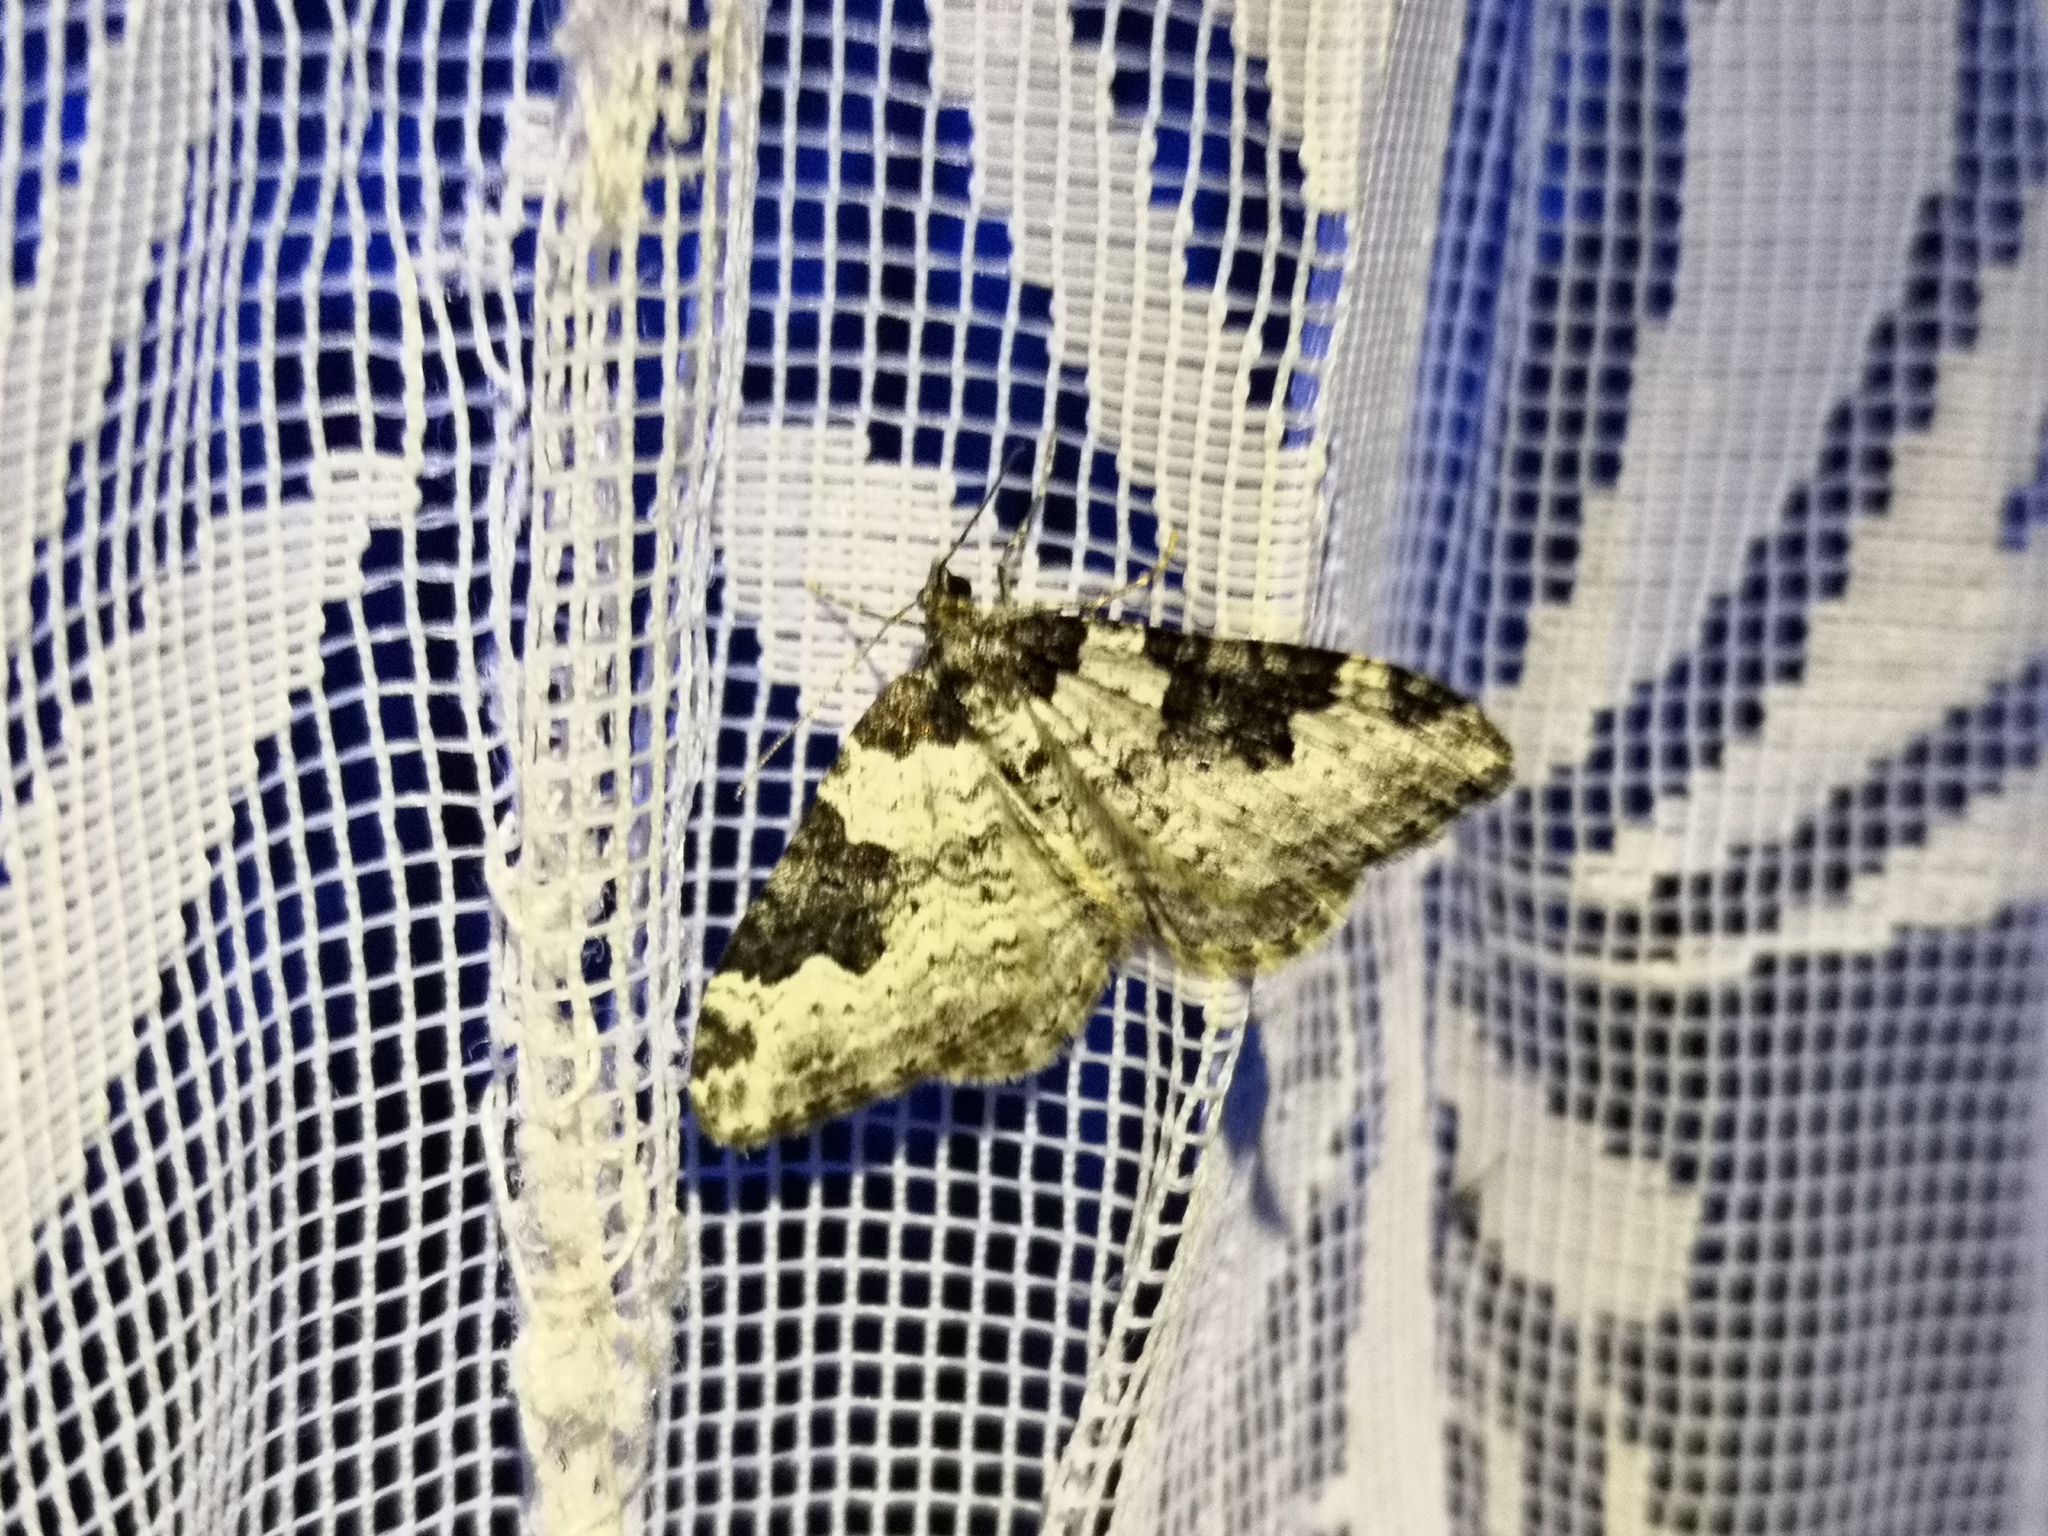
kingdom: Animalia
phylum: Arthropoda
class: Insecta
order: Lepidoptera
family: Geometridae
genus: Xanthorhoe
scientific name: Xanthorhoe fluctuata
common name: Garden carpet
